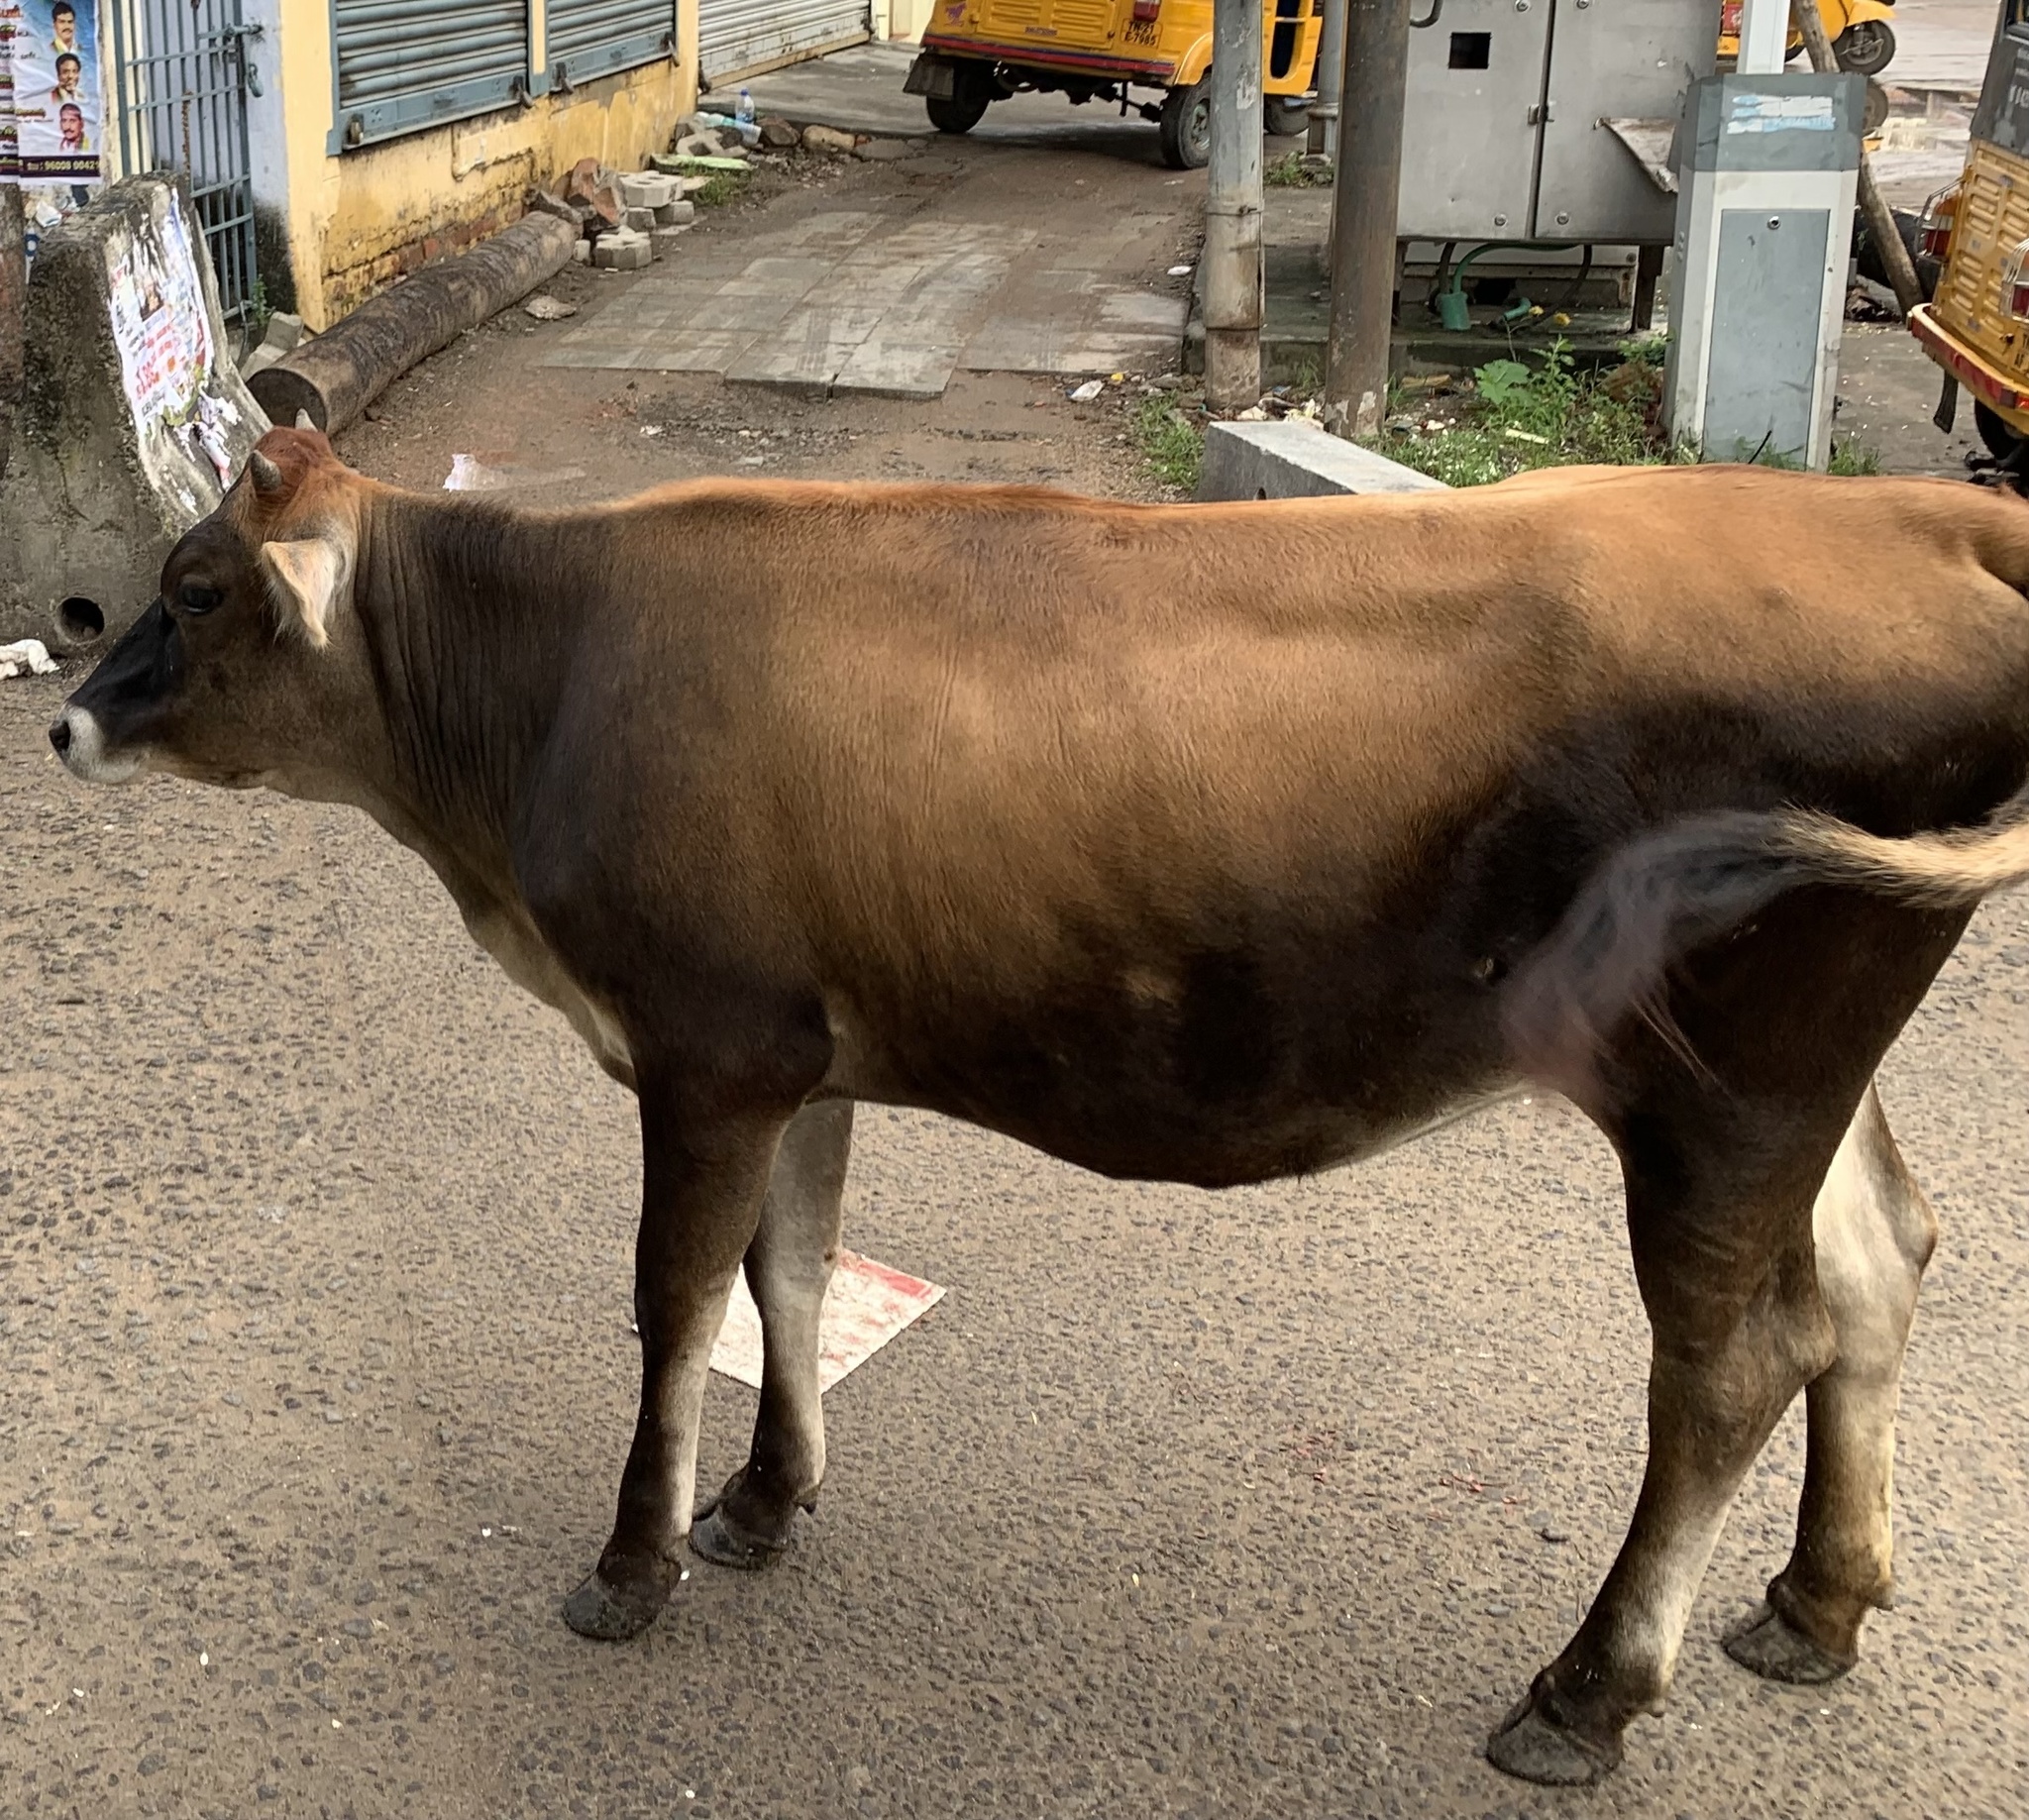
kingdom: Animalia
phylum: Chordata
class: Mammalia
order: Artiodactyla
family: Bovidae
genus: Bos
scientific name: Bos taurus
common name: Domesticated cattle
